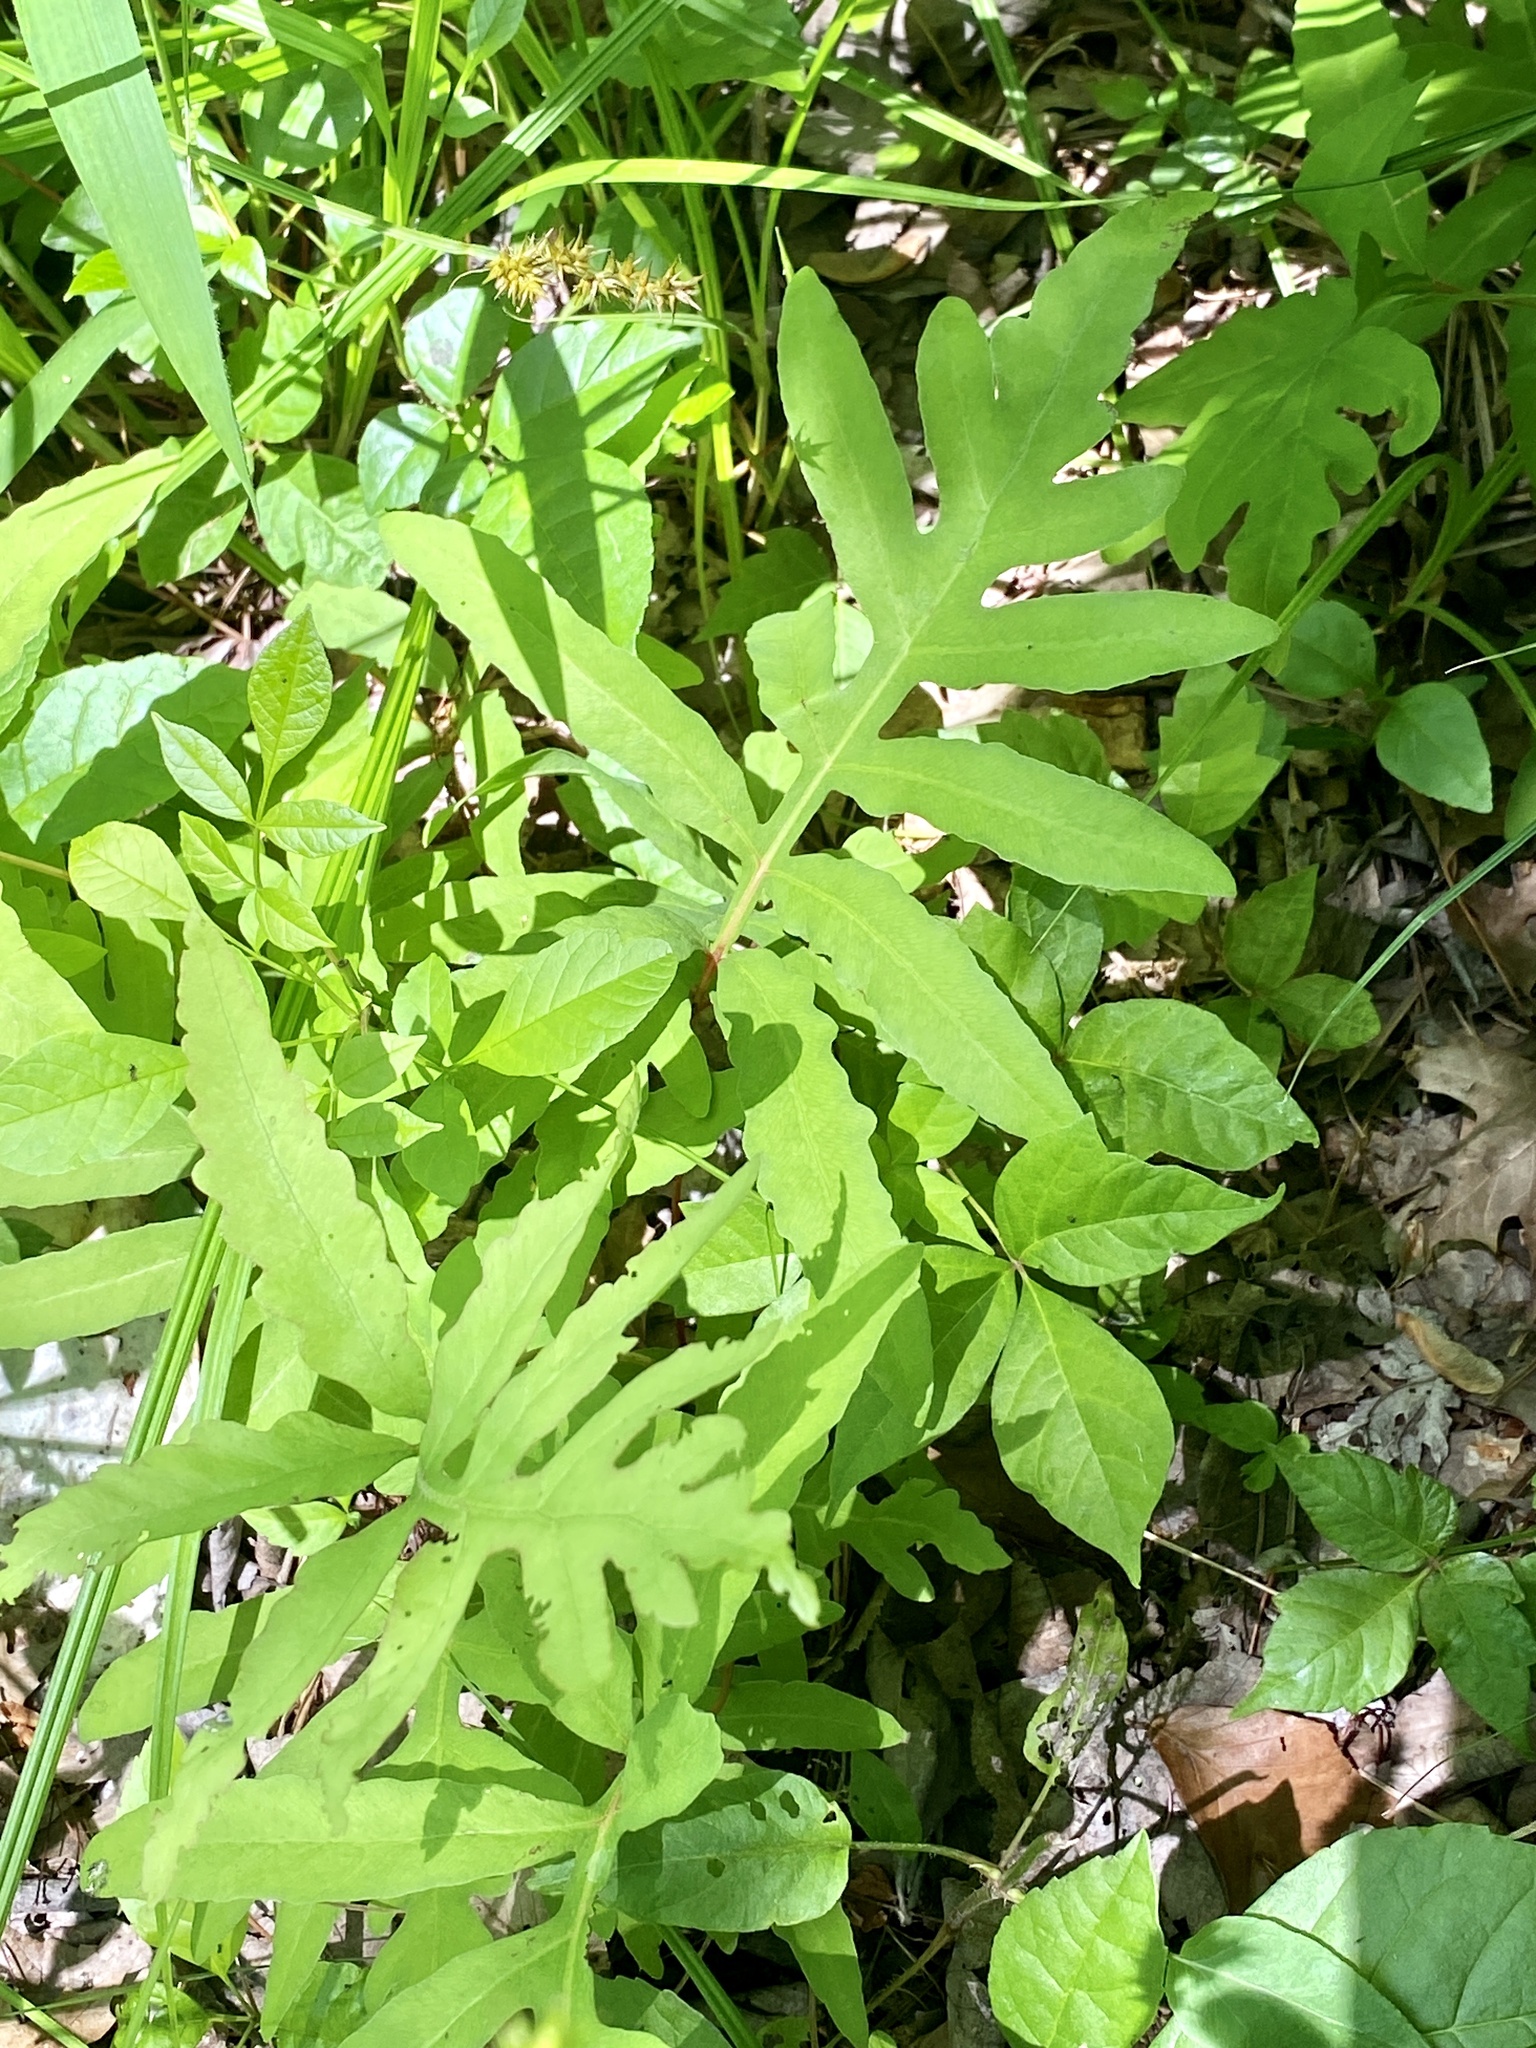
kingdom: Plantae
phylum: Tracheophyta
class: Polypodiopsida
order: Polypodiales
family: Onocleaceae
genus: Onoclea
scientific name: Onoclea sensibilis
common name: Sensitive fern
